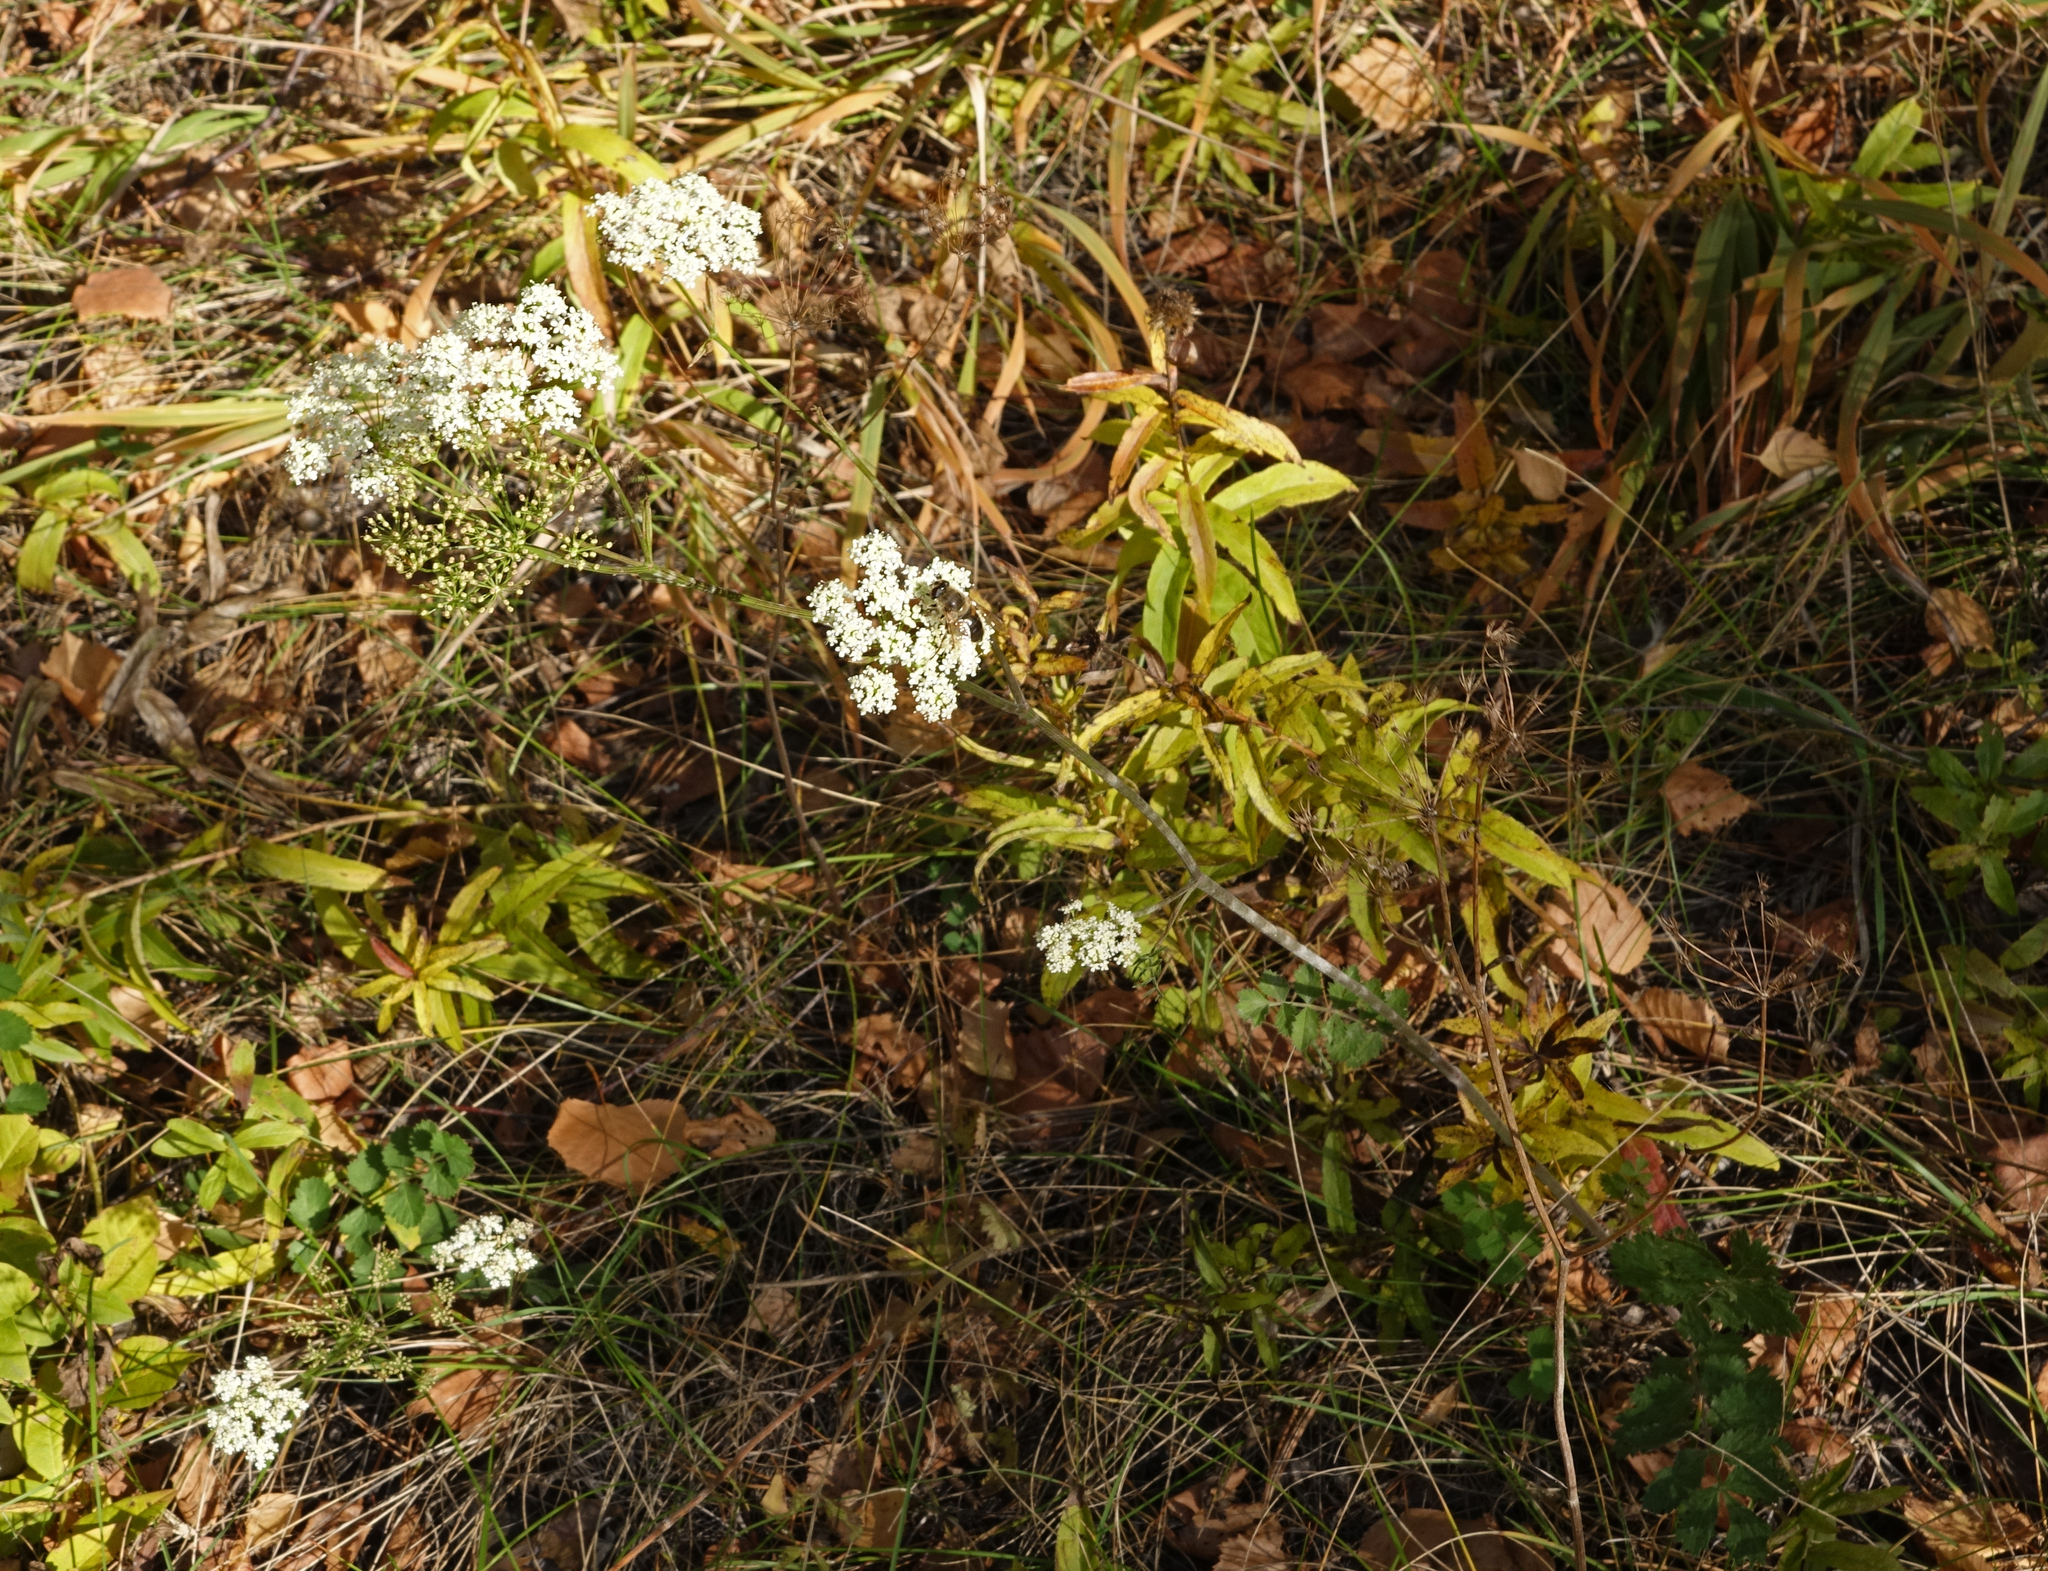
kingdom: Plantae
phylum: Tracheophyta
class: Magnoliopsida
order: Apiales
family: Apiaceae
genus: Pimpinella
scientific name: Pimpinella saxifraga
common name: Burnet-saxifrage
